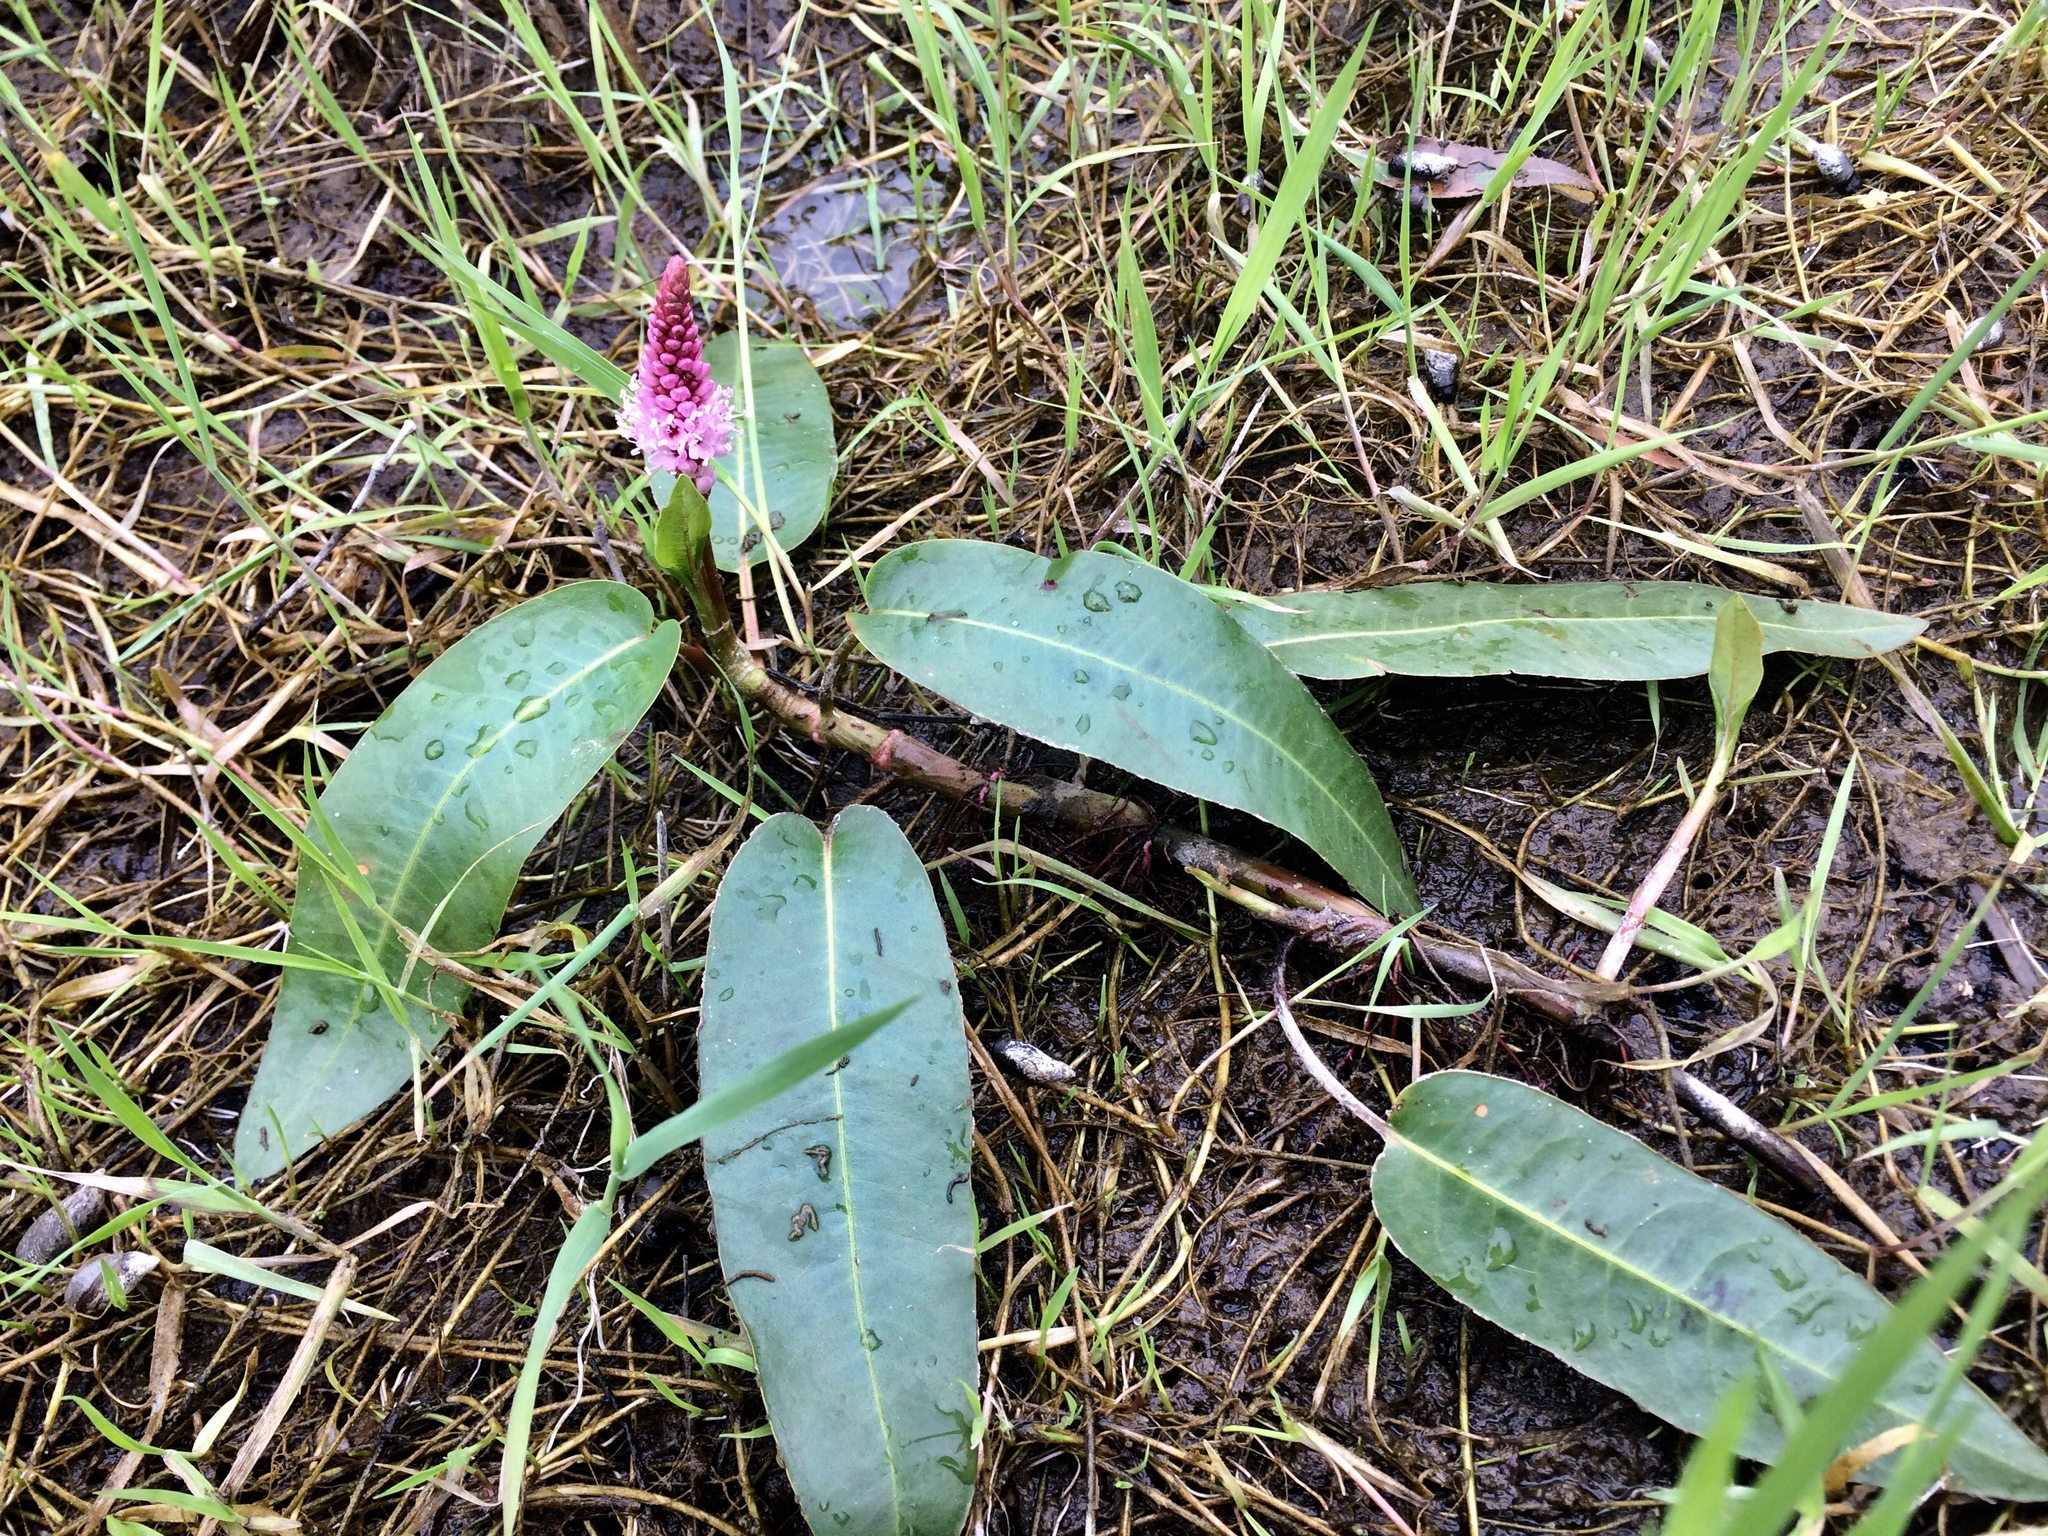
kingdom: Plantae
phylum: Tracheophyta
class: Magnoliopsida
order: Caryophyllales
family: Polygonaceae
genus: Persicaria
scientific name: Persicaria amphibia
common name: Amphibious bistort
